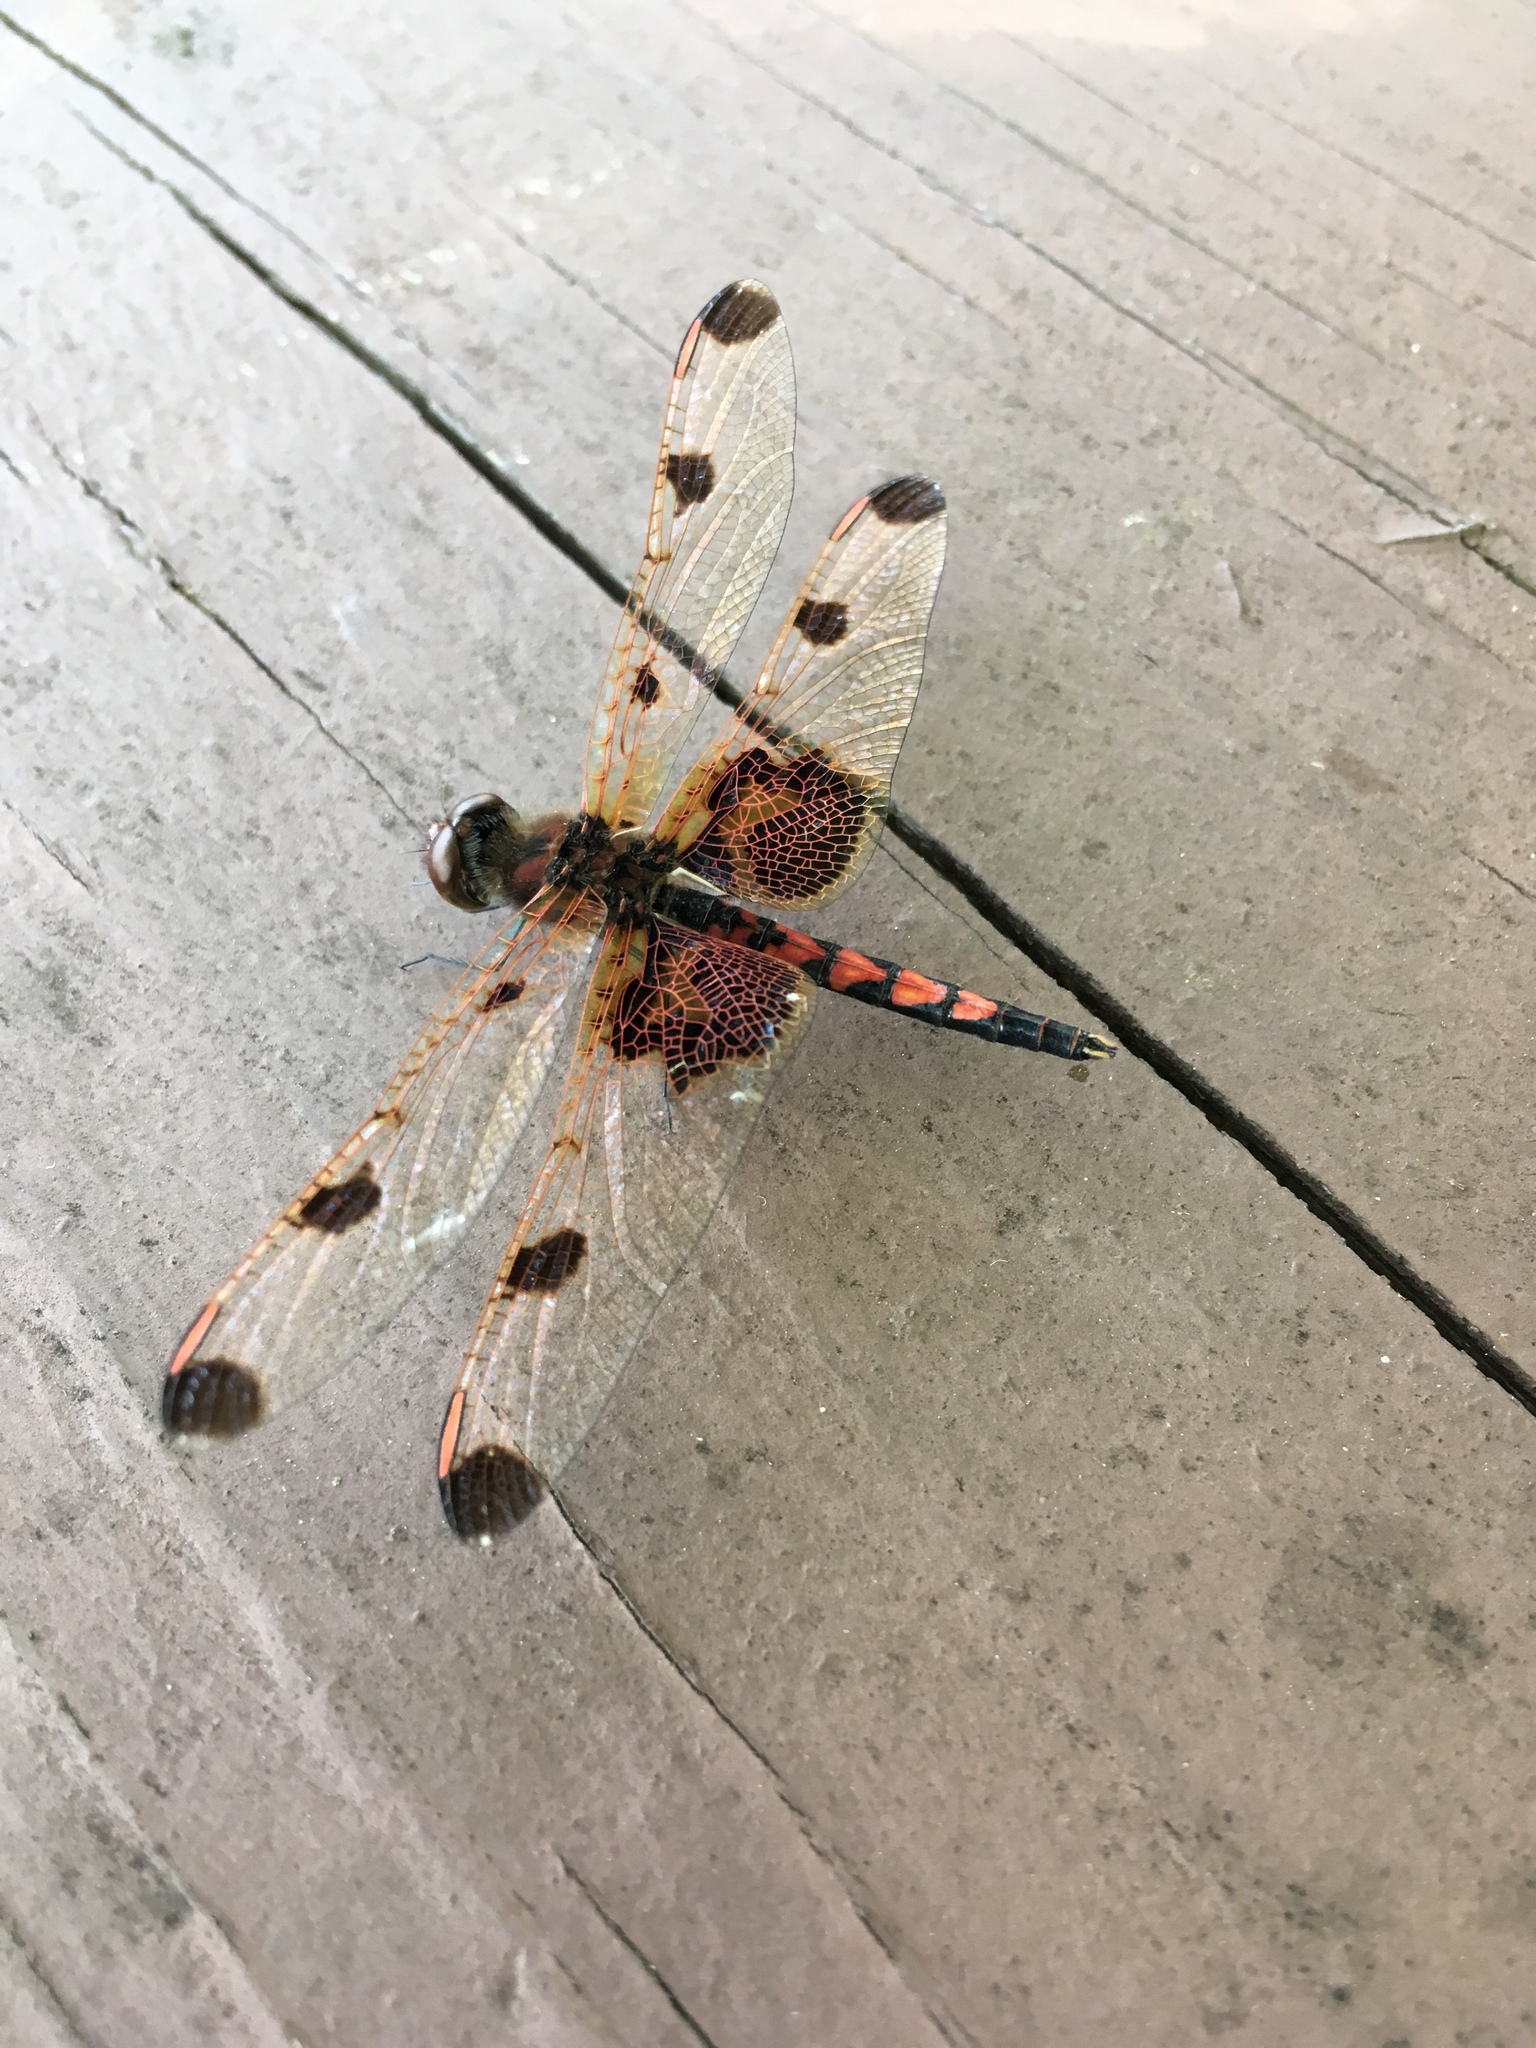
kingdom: Animalia
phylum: Arthropoda
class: Insecta
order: Odonata
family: Libellulidae
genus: Celithemis
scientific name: Celithemis elisa
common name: Calico pennant
